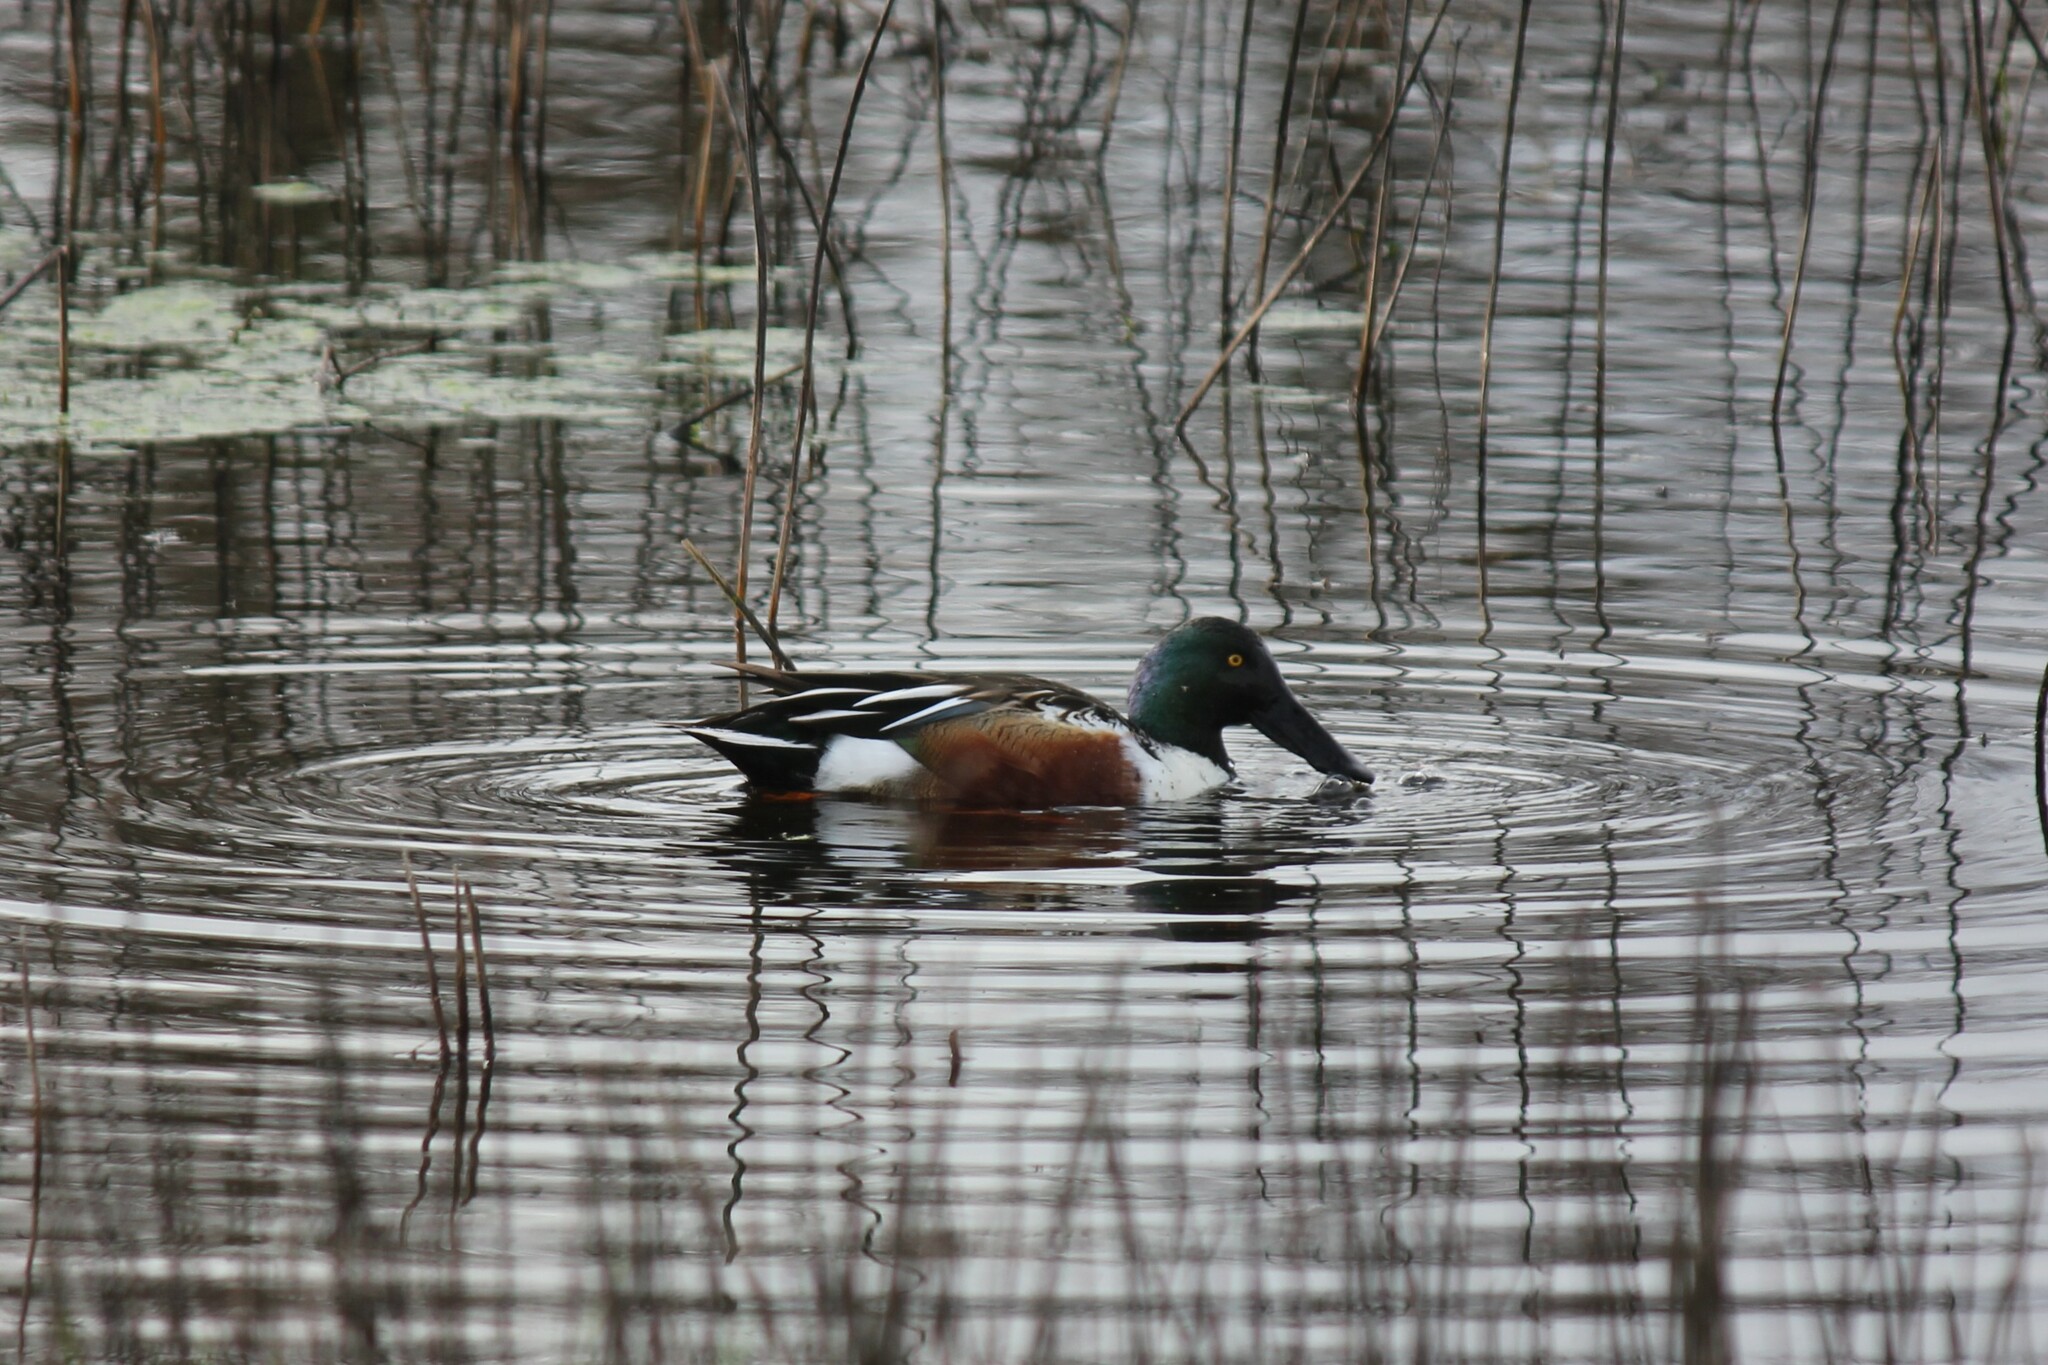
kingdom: Animalia
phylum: Chordata
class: Aves
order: Anseriformes
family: Anatidae
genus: Spatula
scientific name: Spatula clypeata
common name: Northern shoveler
